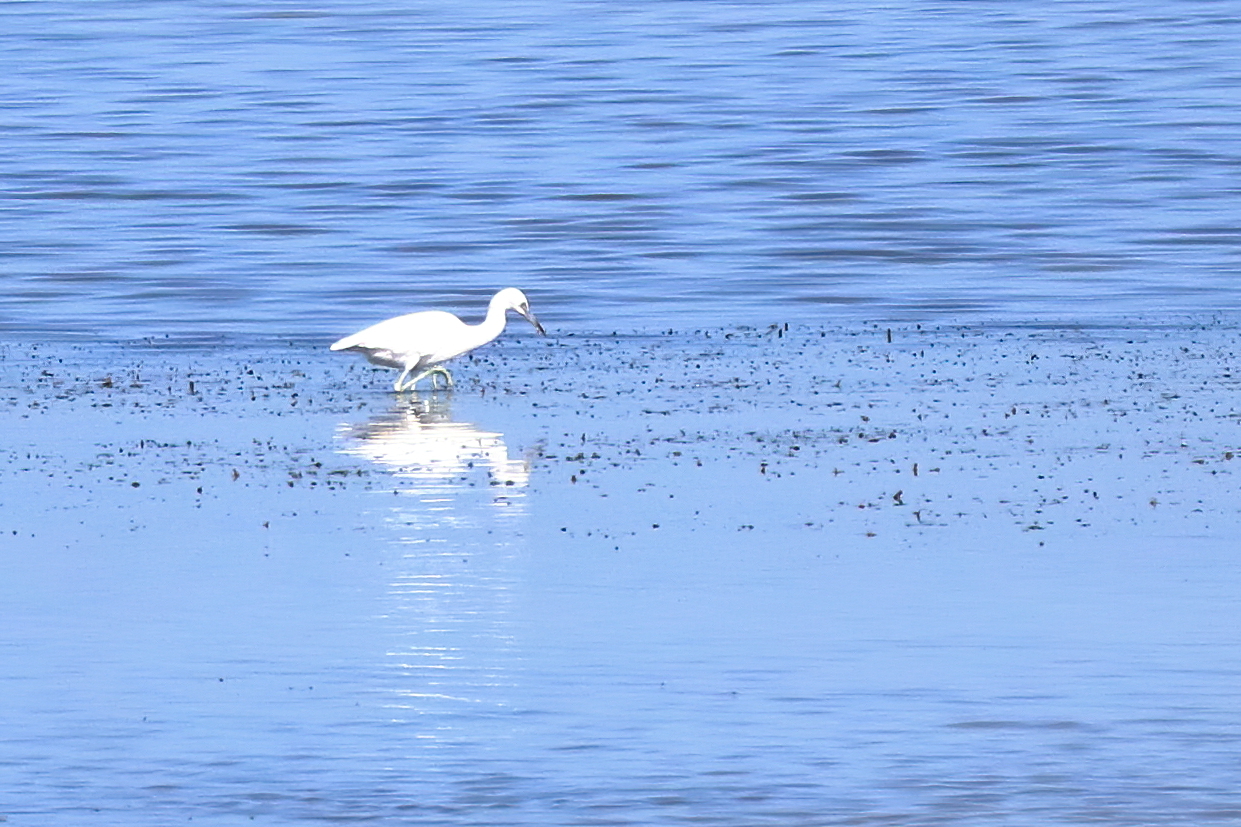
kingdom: Animalia
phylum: Chordata
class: Aves
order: Pelecaniformes
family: Ardeidae
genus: Egretta
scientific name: Egretta caerulea
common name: Little blue heron
